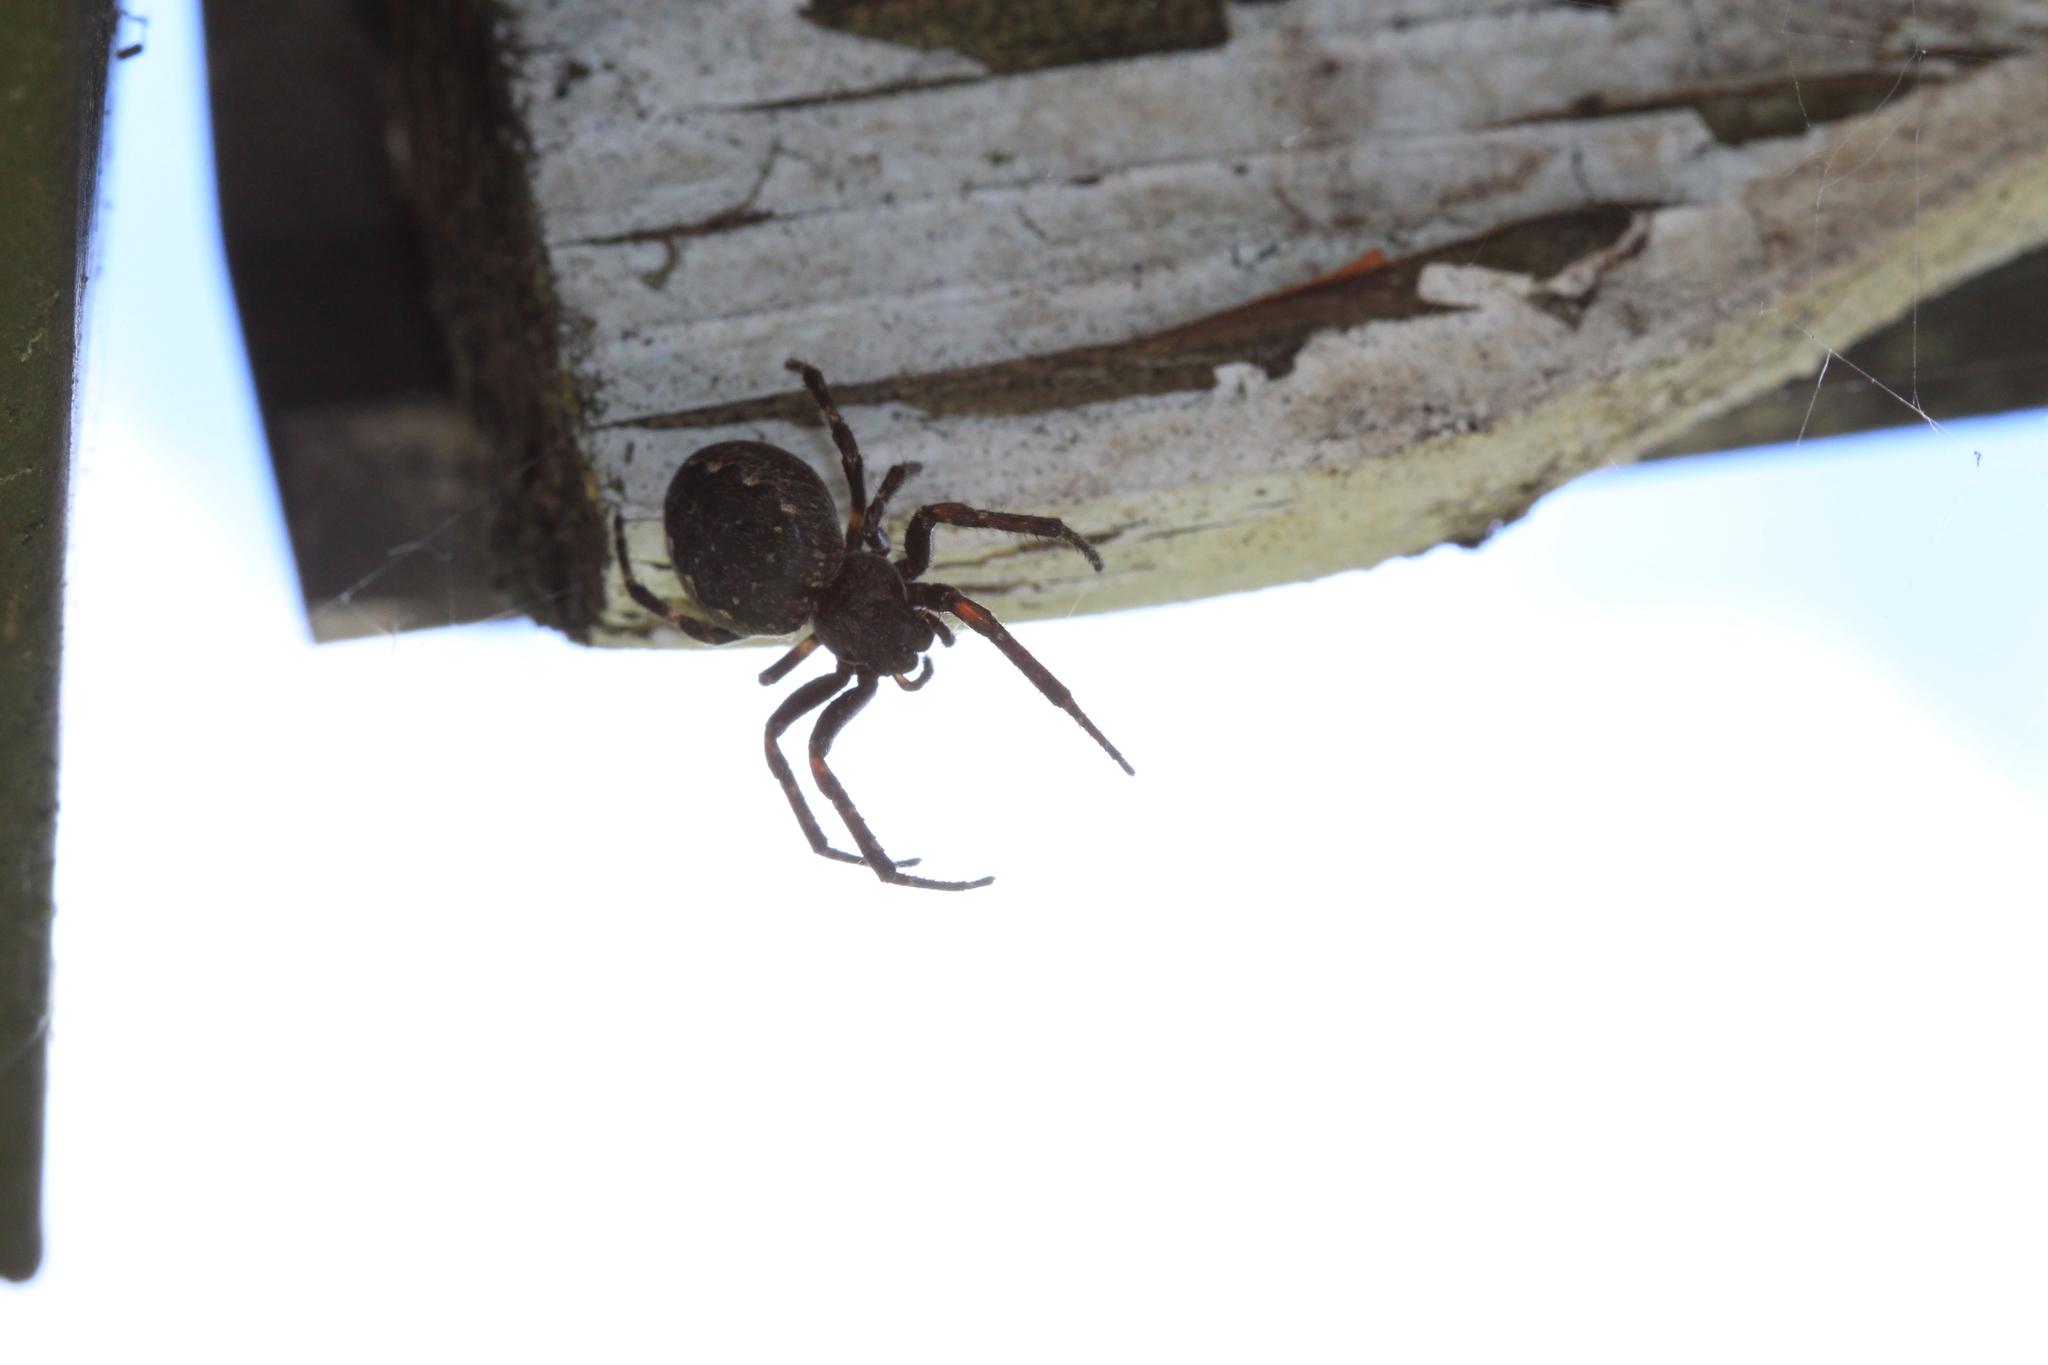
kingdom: Animalia
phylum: Arthropoda
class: Arachnida
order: Araneae
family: Araneidae
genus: Nuctenea
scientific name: Nuctenea umbratica
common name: Toad spider
